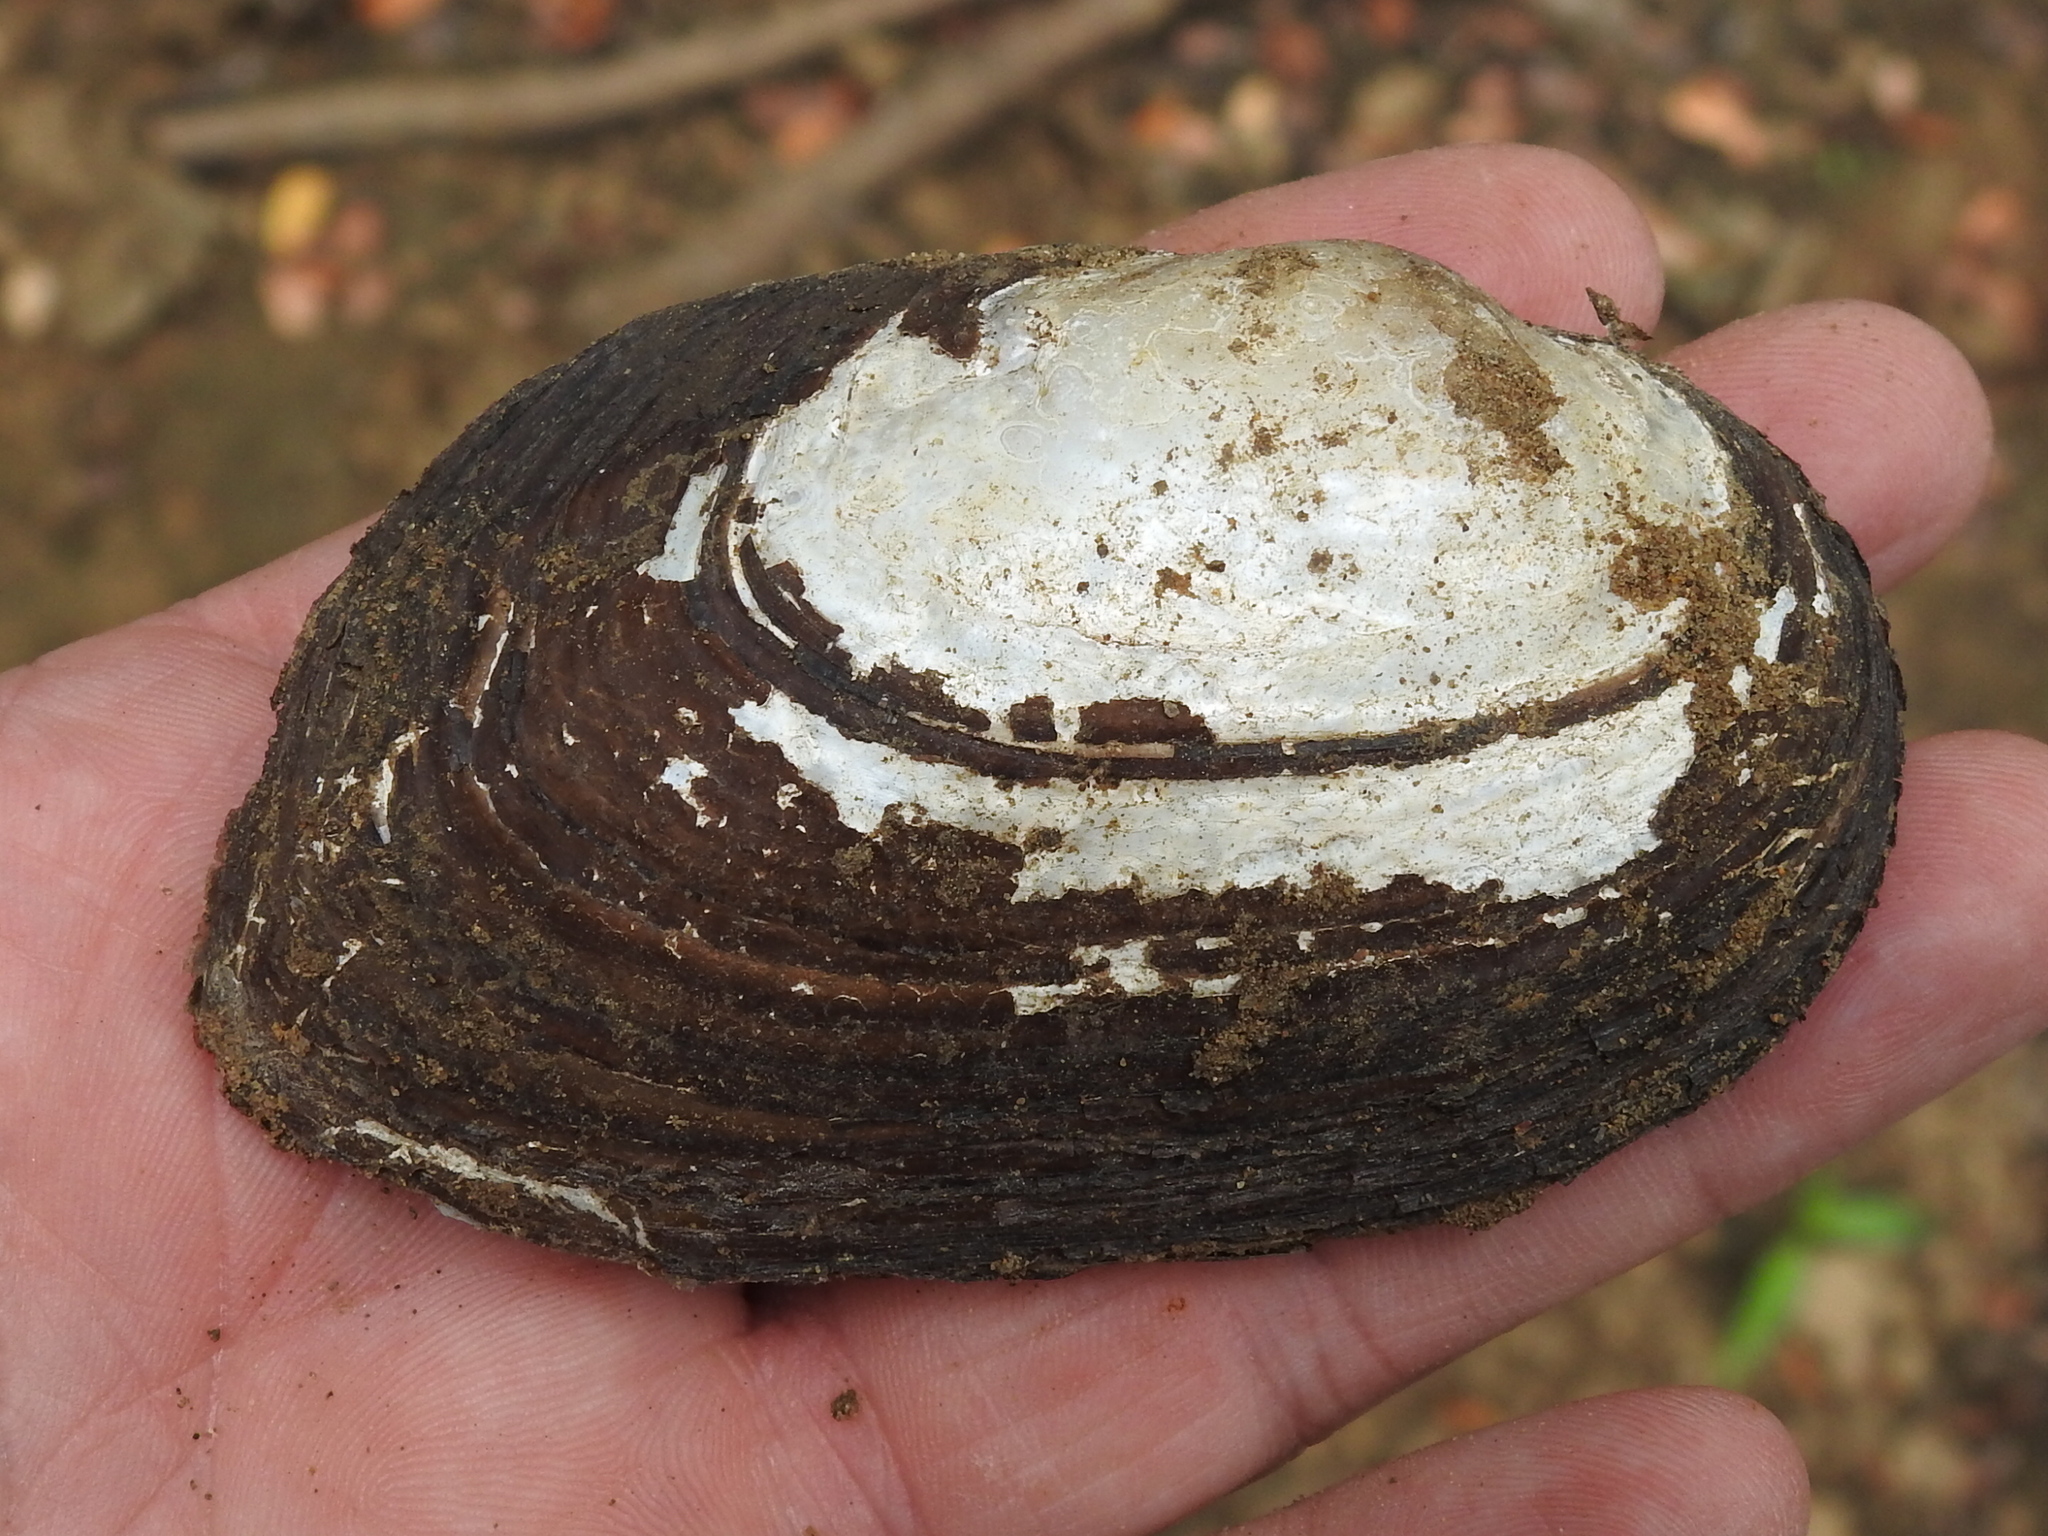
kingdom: Animalia
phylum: Mollusca
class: Bivalvia
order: Unionida
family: Unionidae
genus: Uniomerus
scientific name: Uniomerus declivis
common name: Tapered pondhorn
